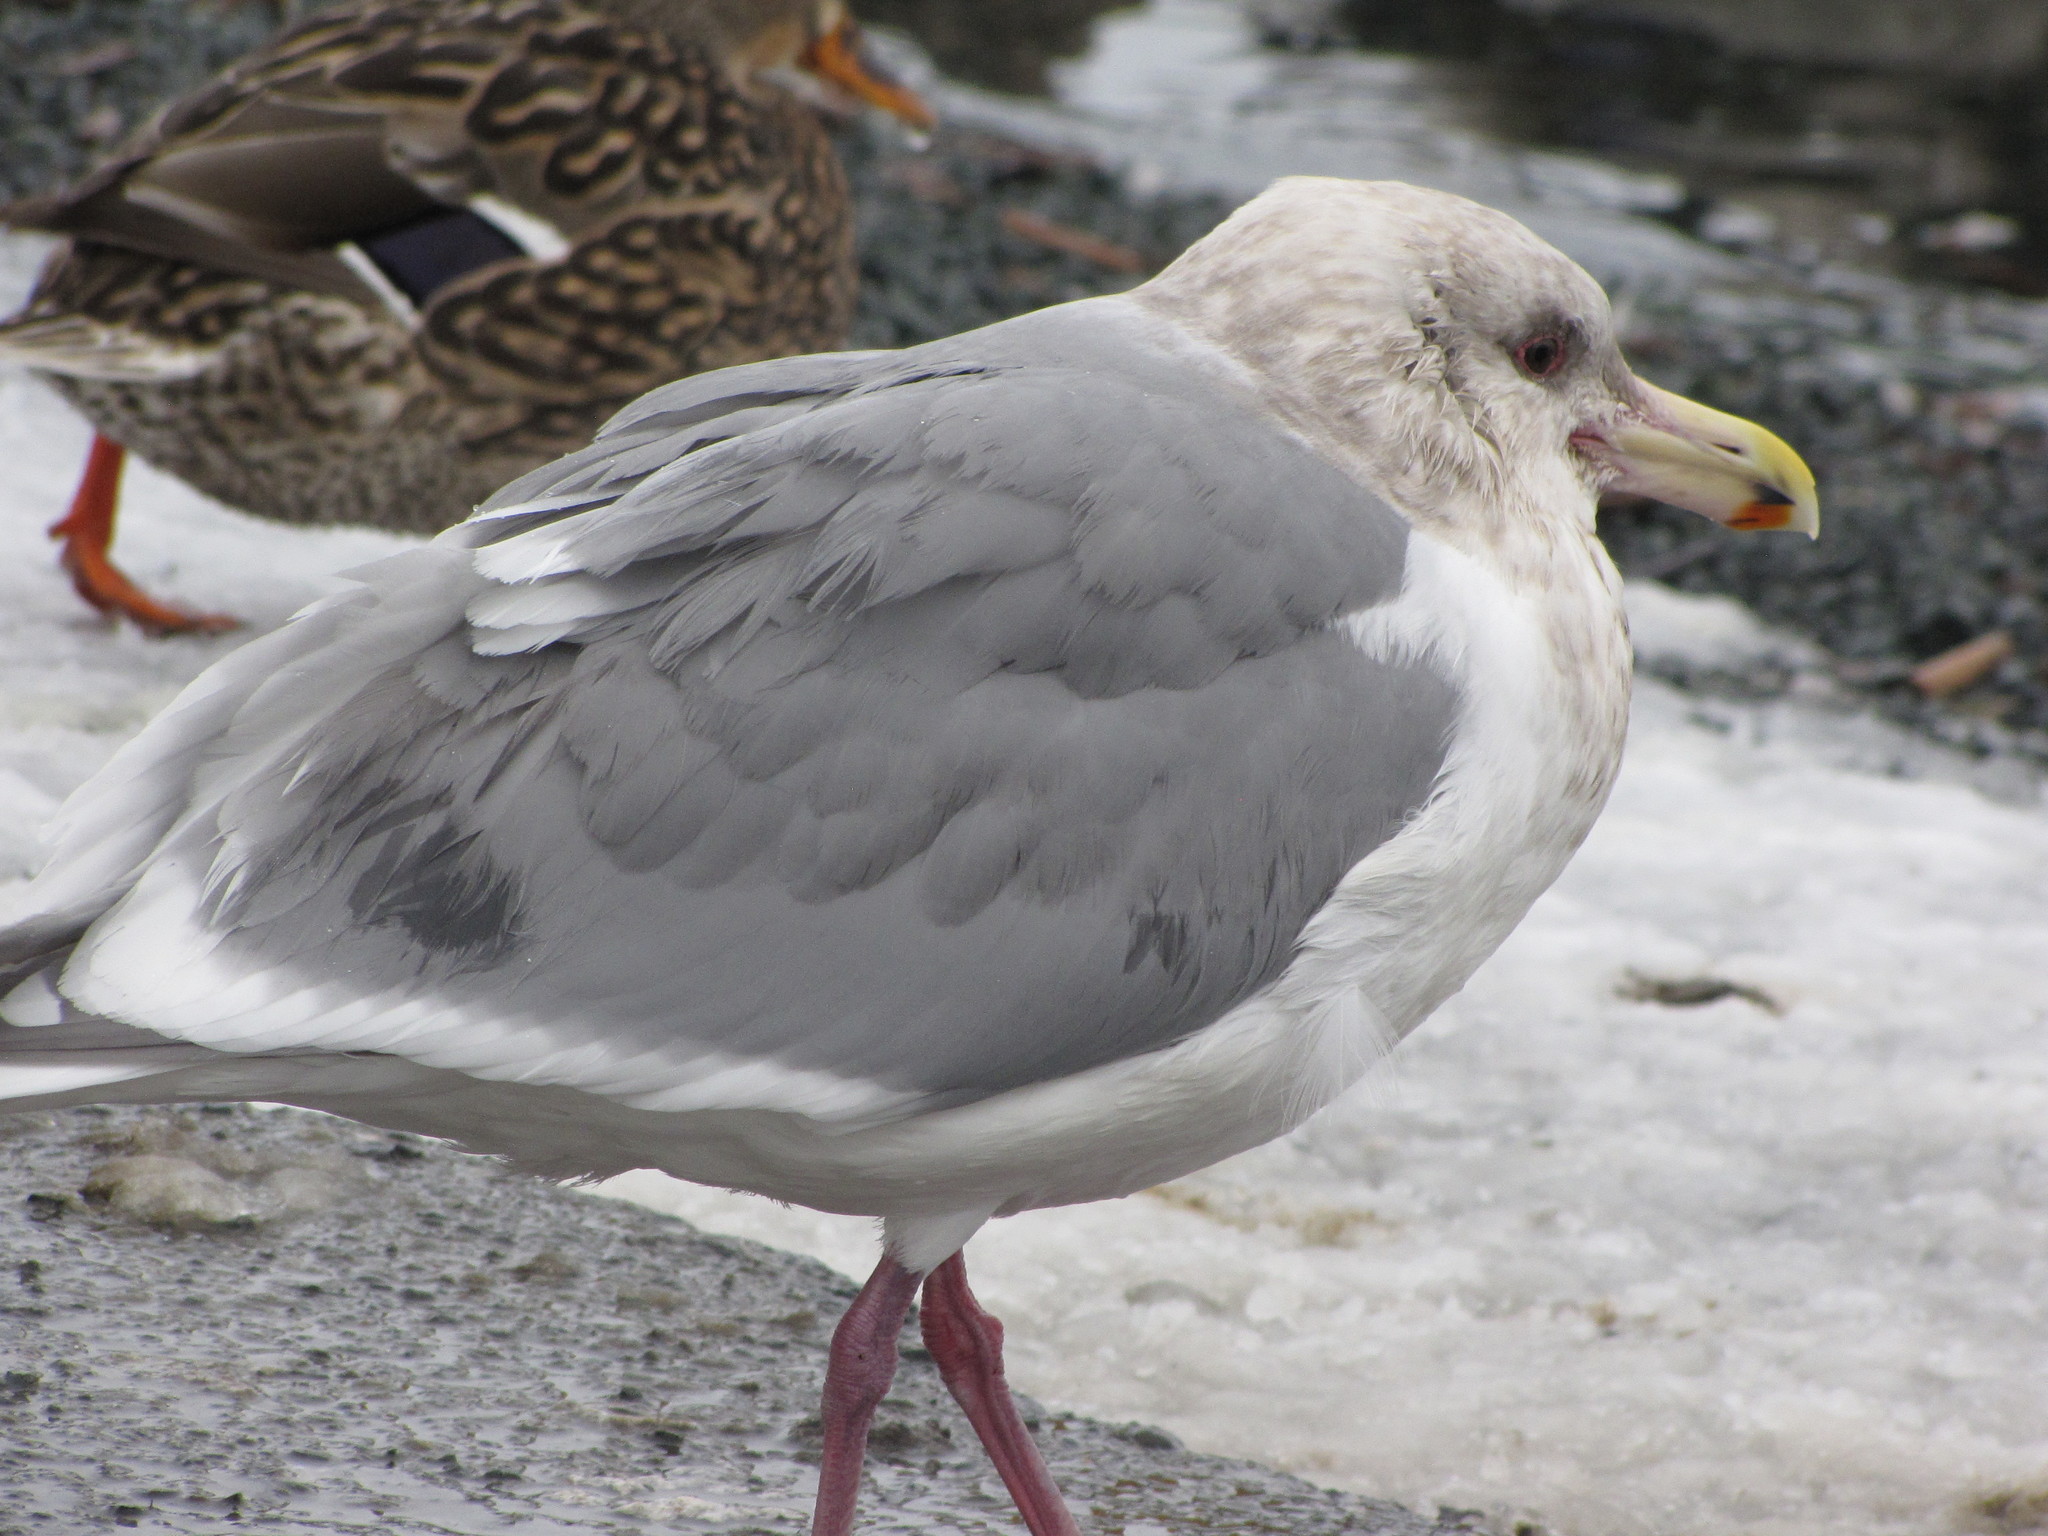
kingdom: Animalia
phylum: Chordata
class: Aves
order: Charadriiformes
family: Laridae
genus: Larus
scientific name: Larus glaucescens
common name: Glaucous-winged gull
